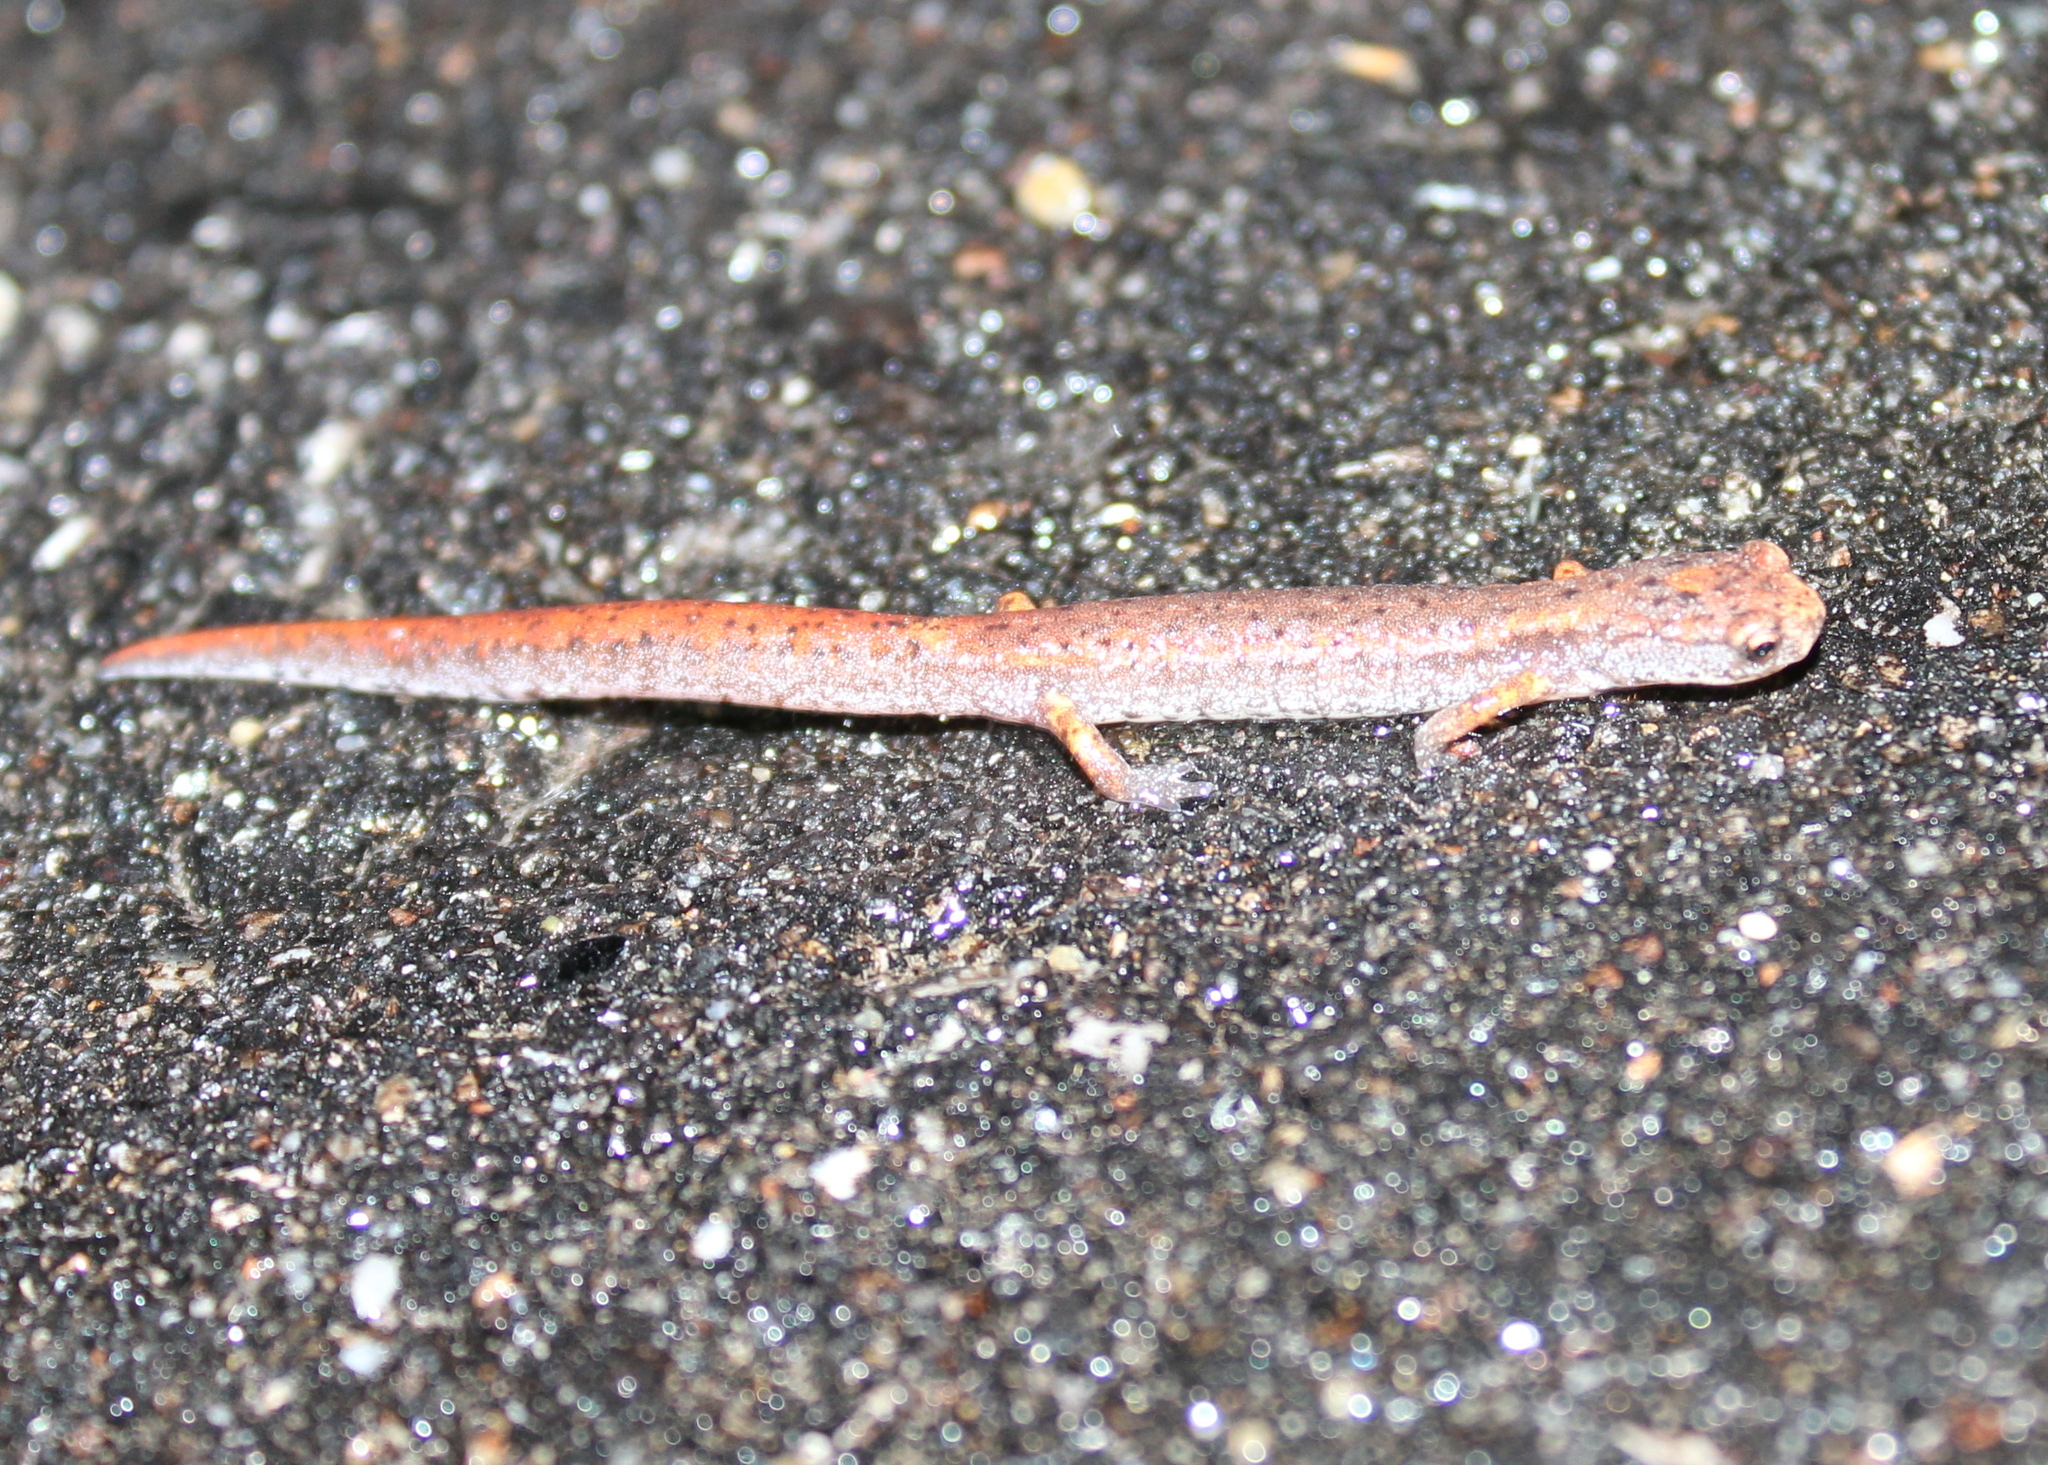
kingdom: Animalia
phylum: Chordata
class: Amphibia
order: Caudata
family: Plethodontidae
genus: Hemidactylium
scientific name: Hemidactylium scutatum
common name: Four-toed salamander
